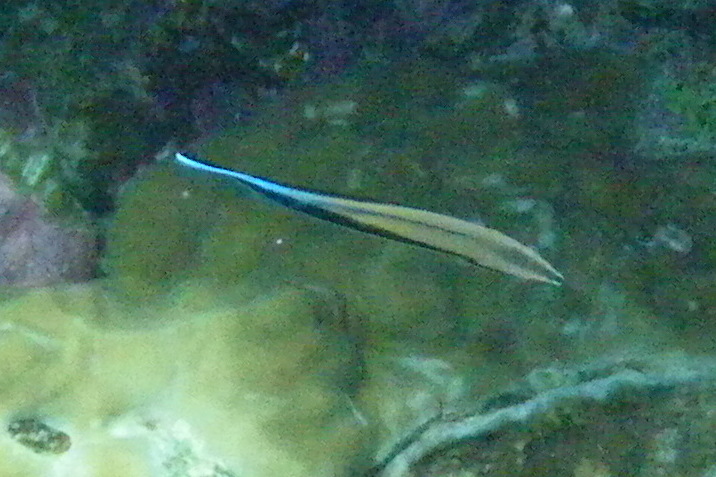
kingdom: Animalia
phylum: Chordata
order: Perciformes
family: Labridae
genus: Labroides
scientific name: Labroides dimidiatus
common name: Blue diesel wrasse
